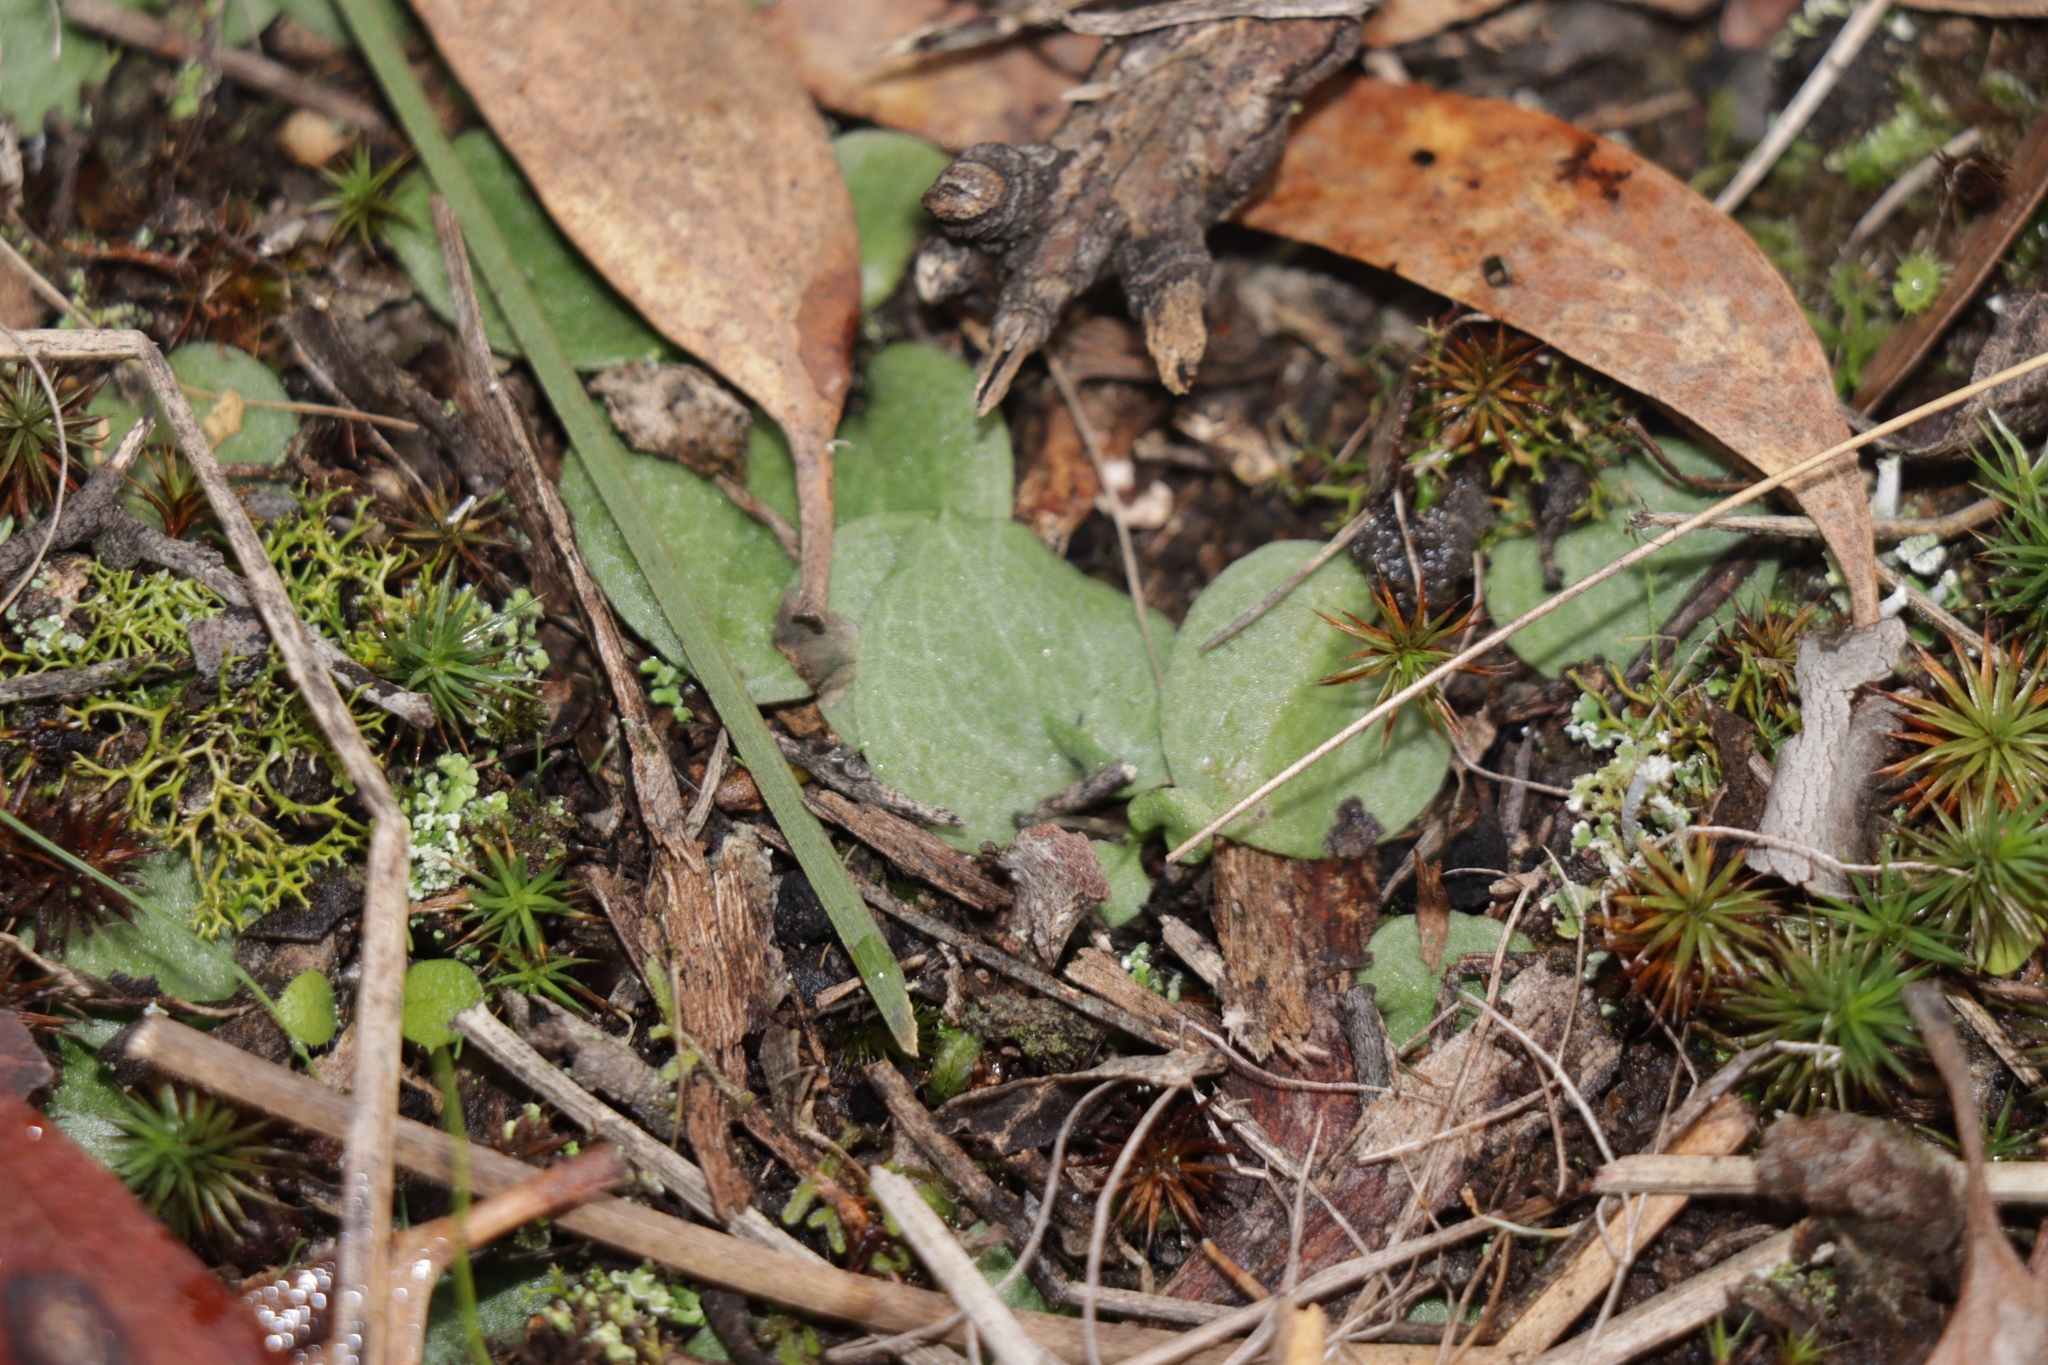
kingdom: Plantae
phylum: Tracheophyta
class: Liliopsida
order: Asparagales
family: Orchidaceae
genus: Cyrtostylis
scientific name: Cyrtostylis reniformis
